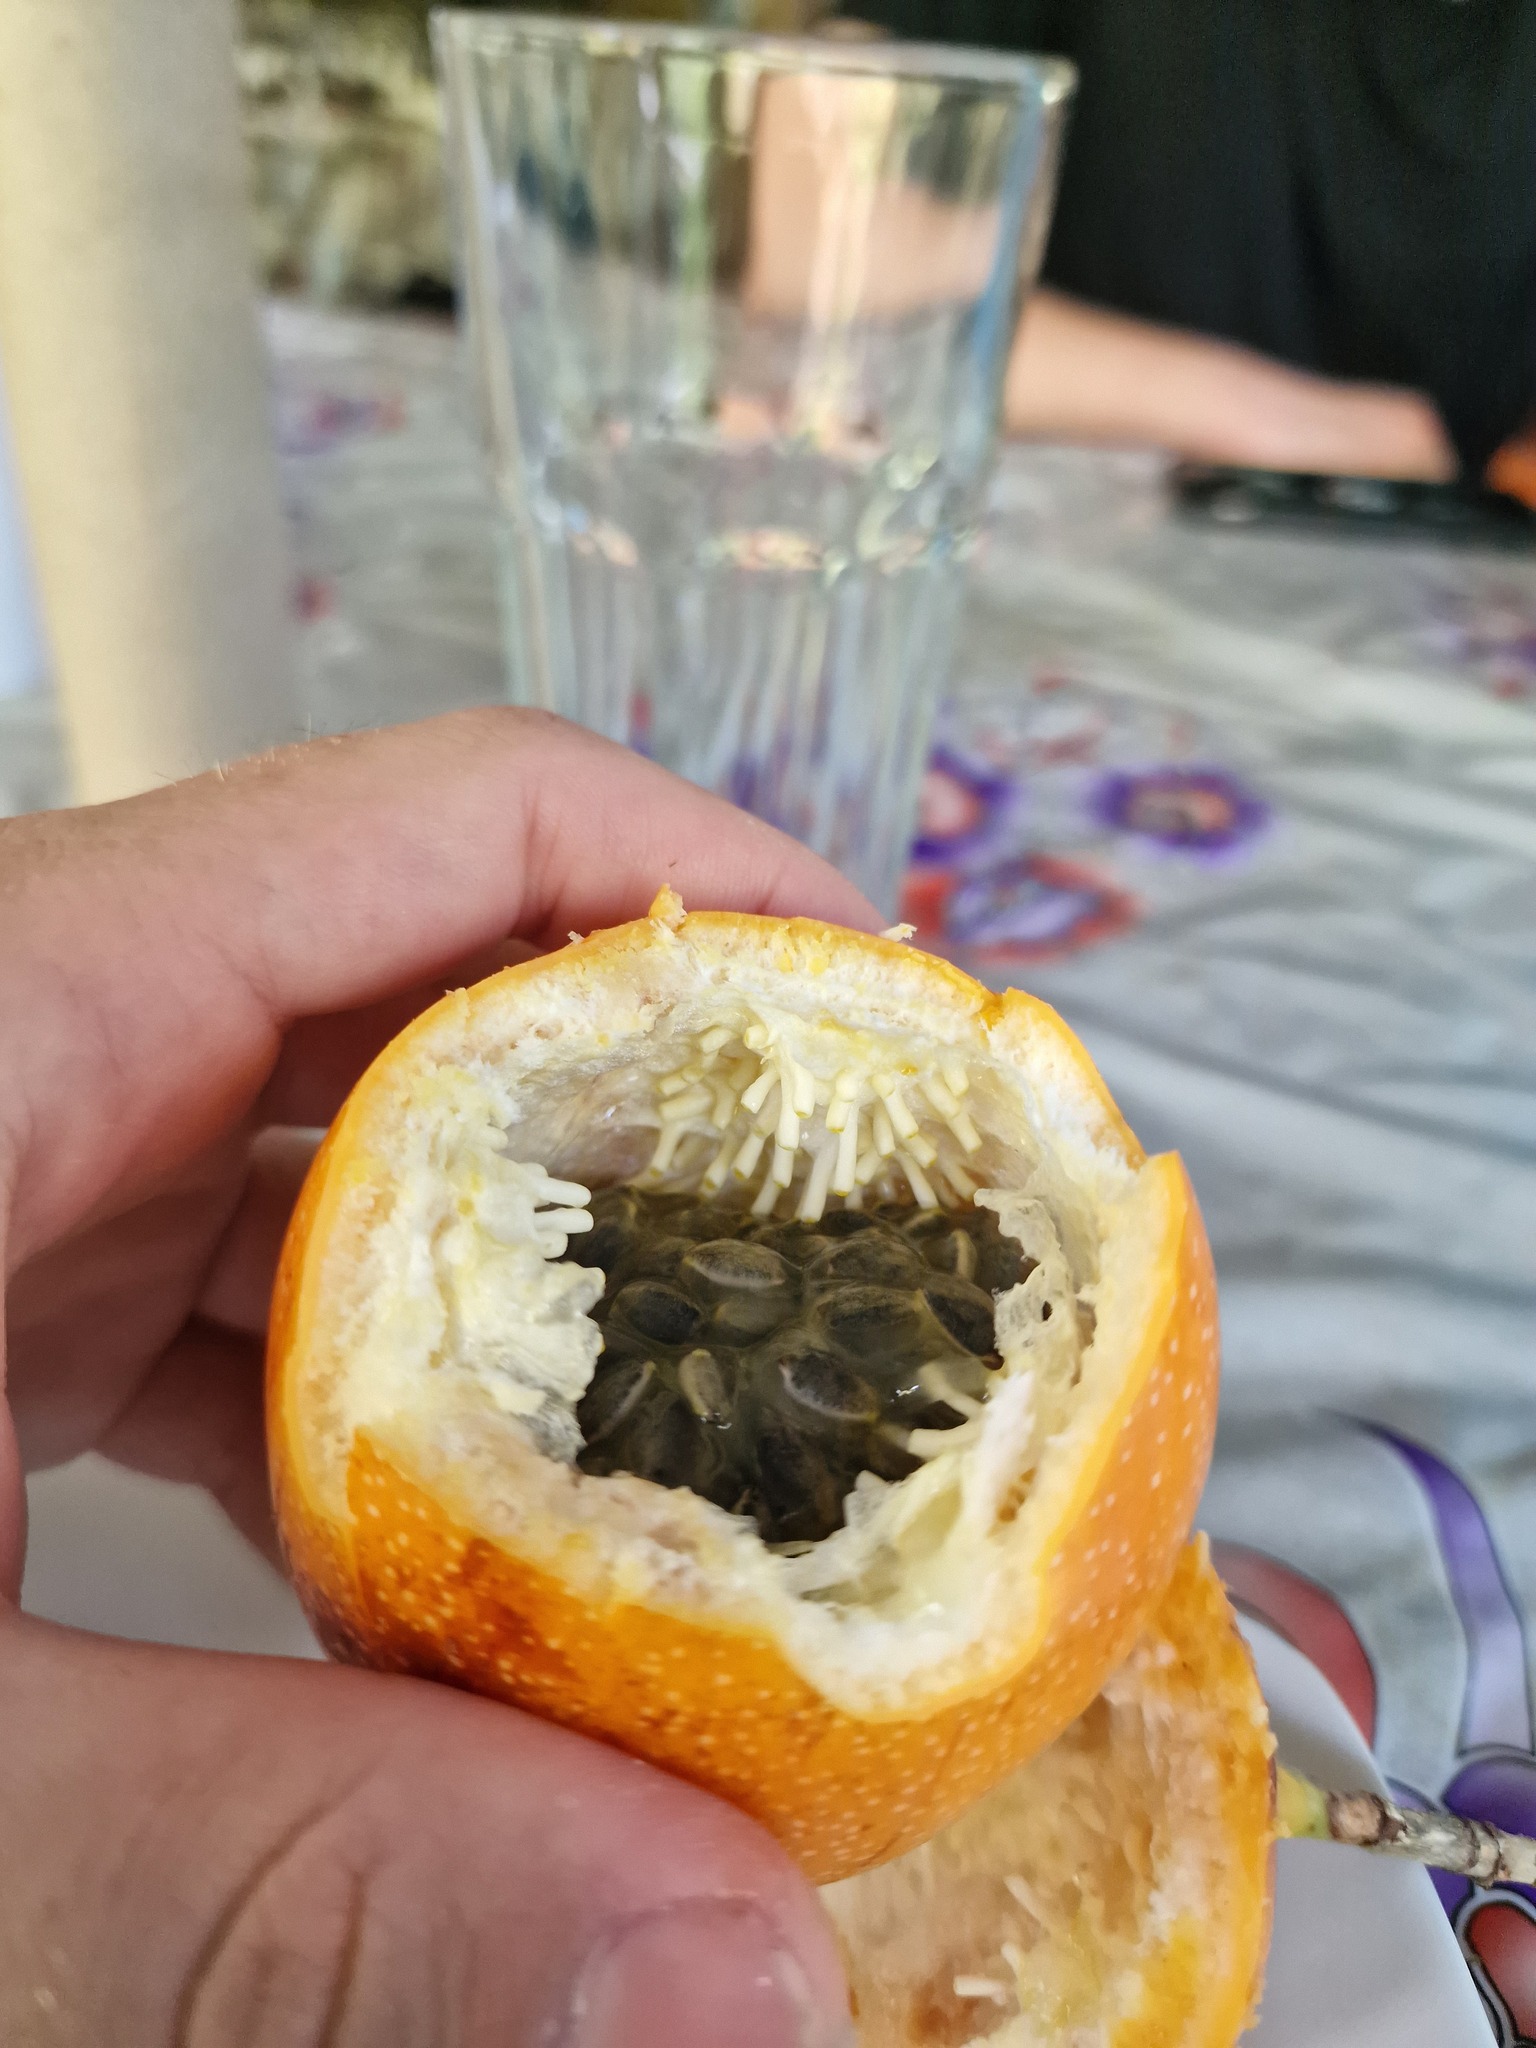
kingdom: Plantae
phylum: Tracheophyta
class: Magnoliopsida
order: Malpighiales
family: Passifloraceae
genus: Passiflora
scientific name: Passiflora ligularis
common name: Sweet granadilla
